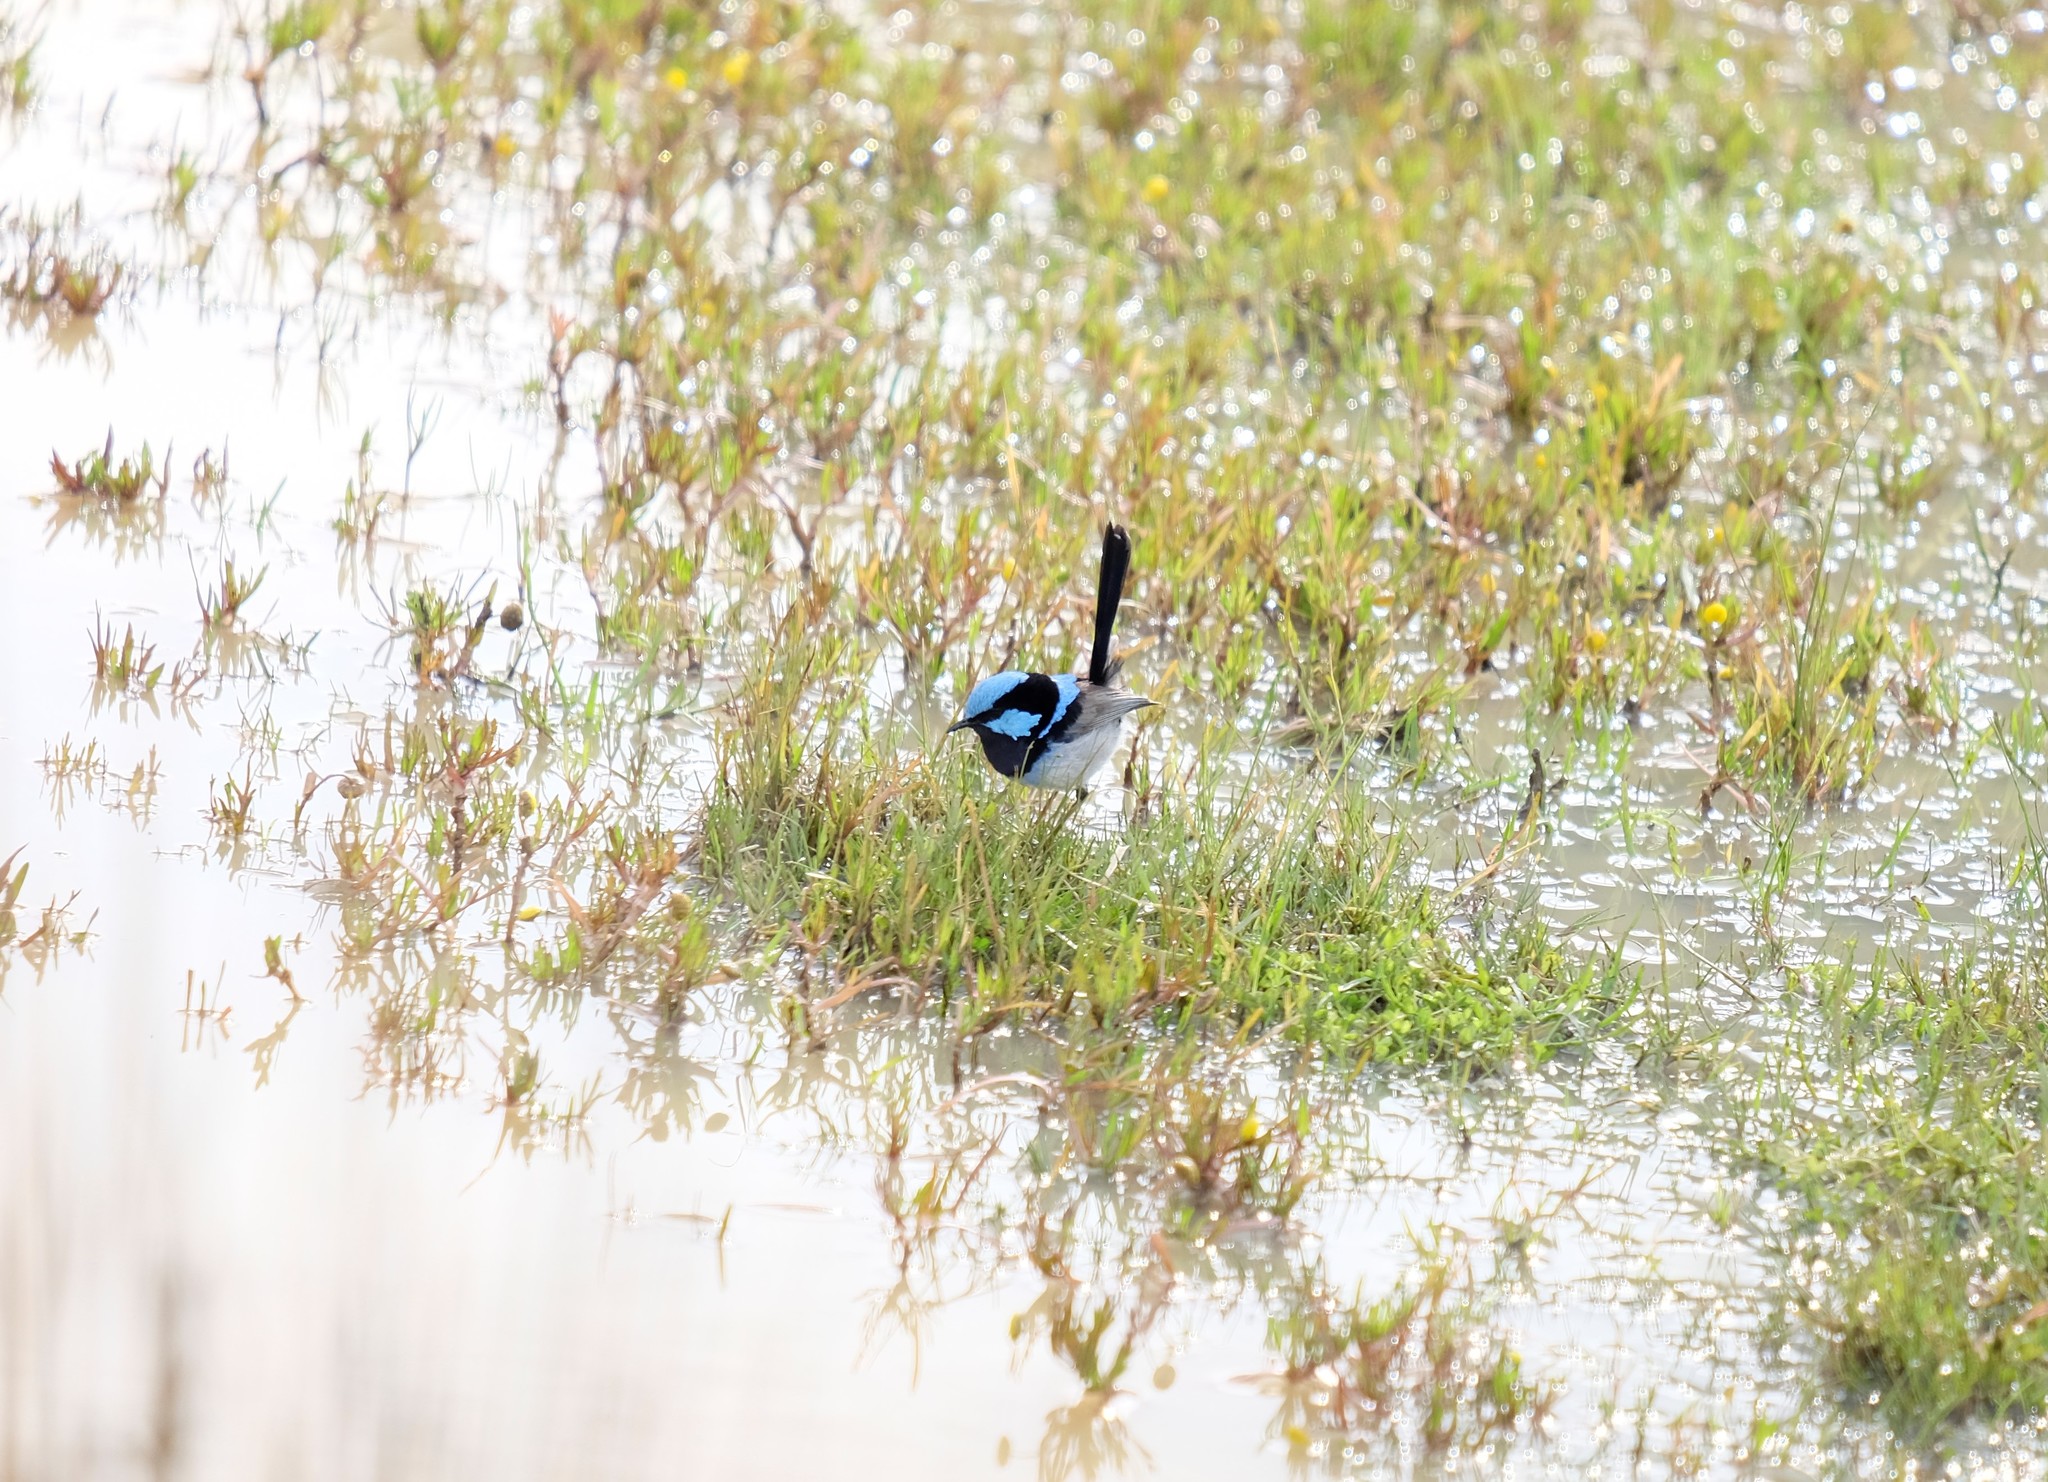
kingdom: Animalia
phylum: Chordata
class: Aves
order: Passeriformes
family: Maluridae
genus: Malurus
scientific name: Malurus cyaneus
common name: Superb fairywren
